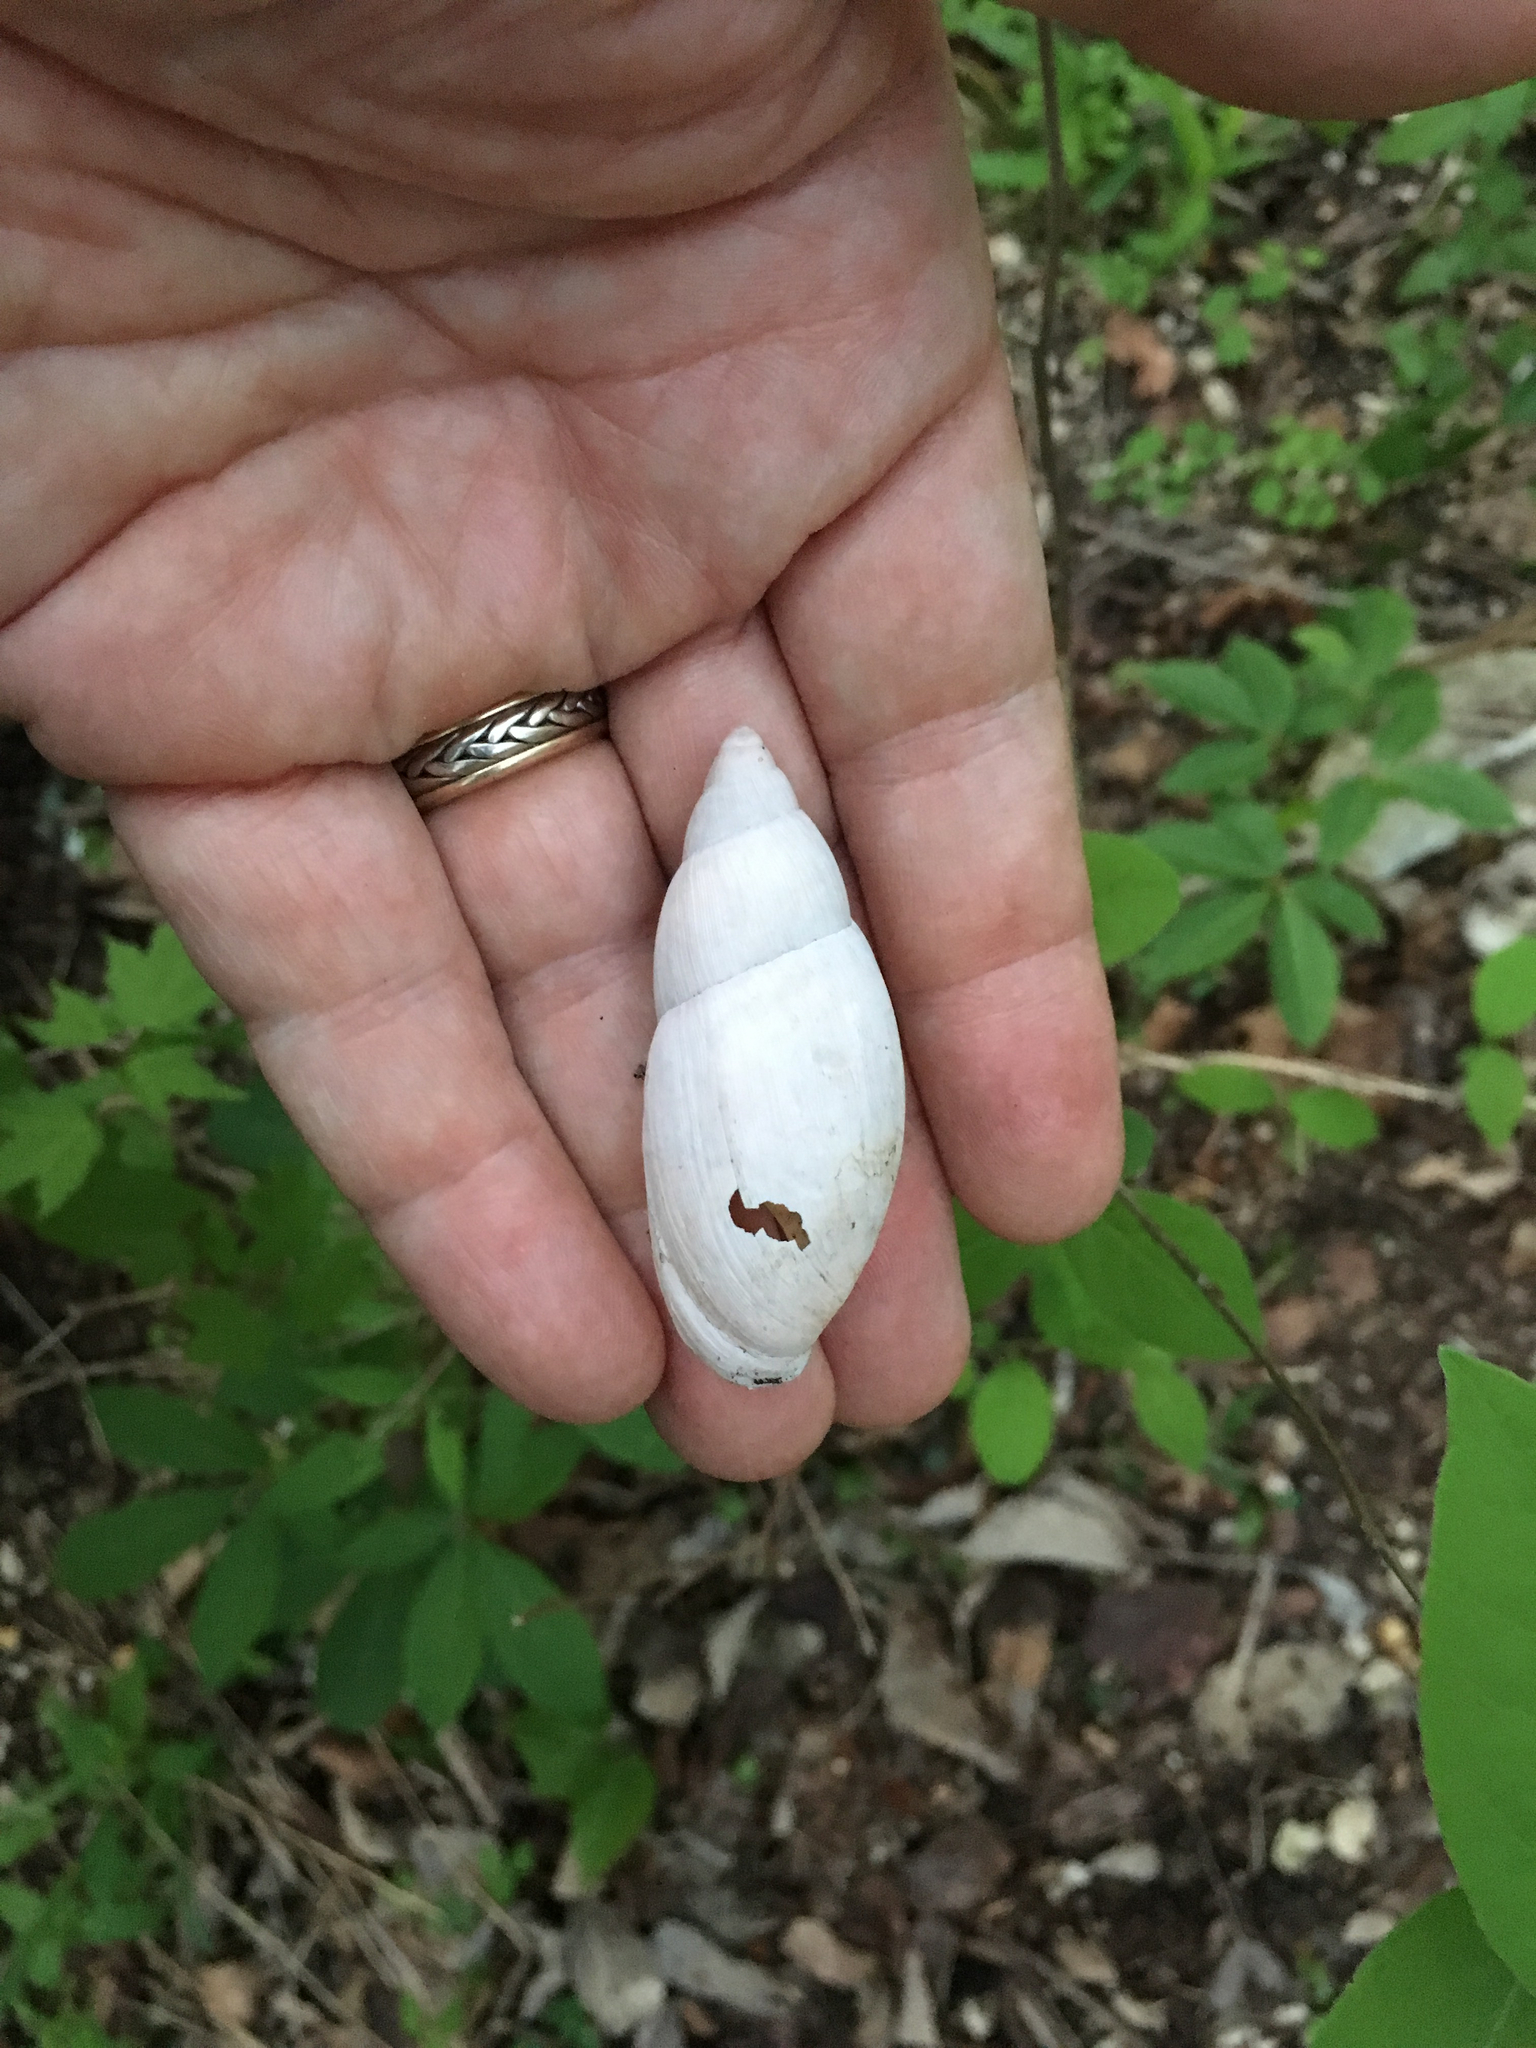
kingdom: Animalia
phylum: Mollusca
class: Gastropoda
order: Stylommatophora
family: Spiraxidae
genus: Euglandina
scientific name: Euglandina rosea
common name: Rosy wolfsnail
